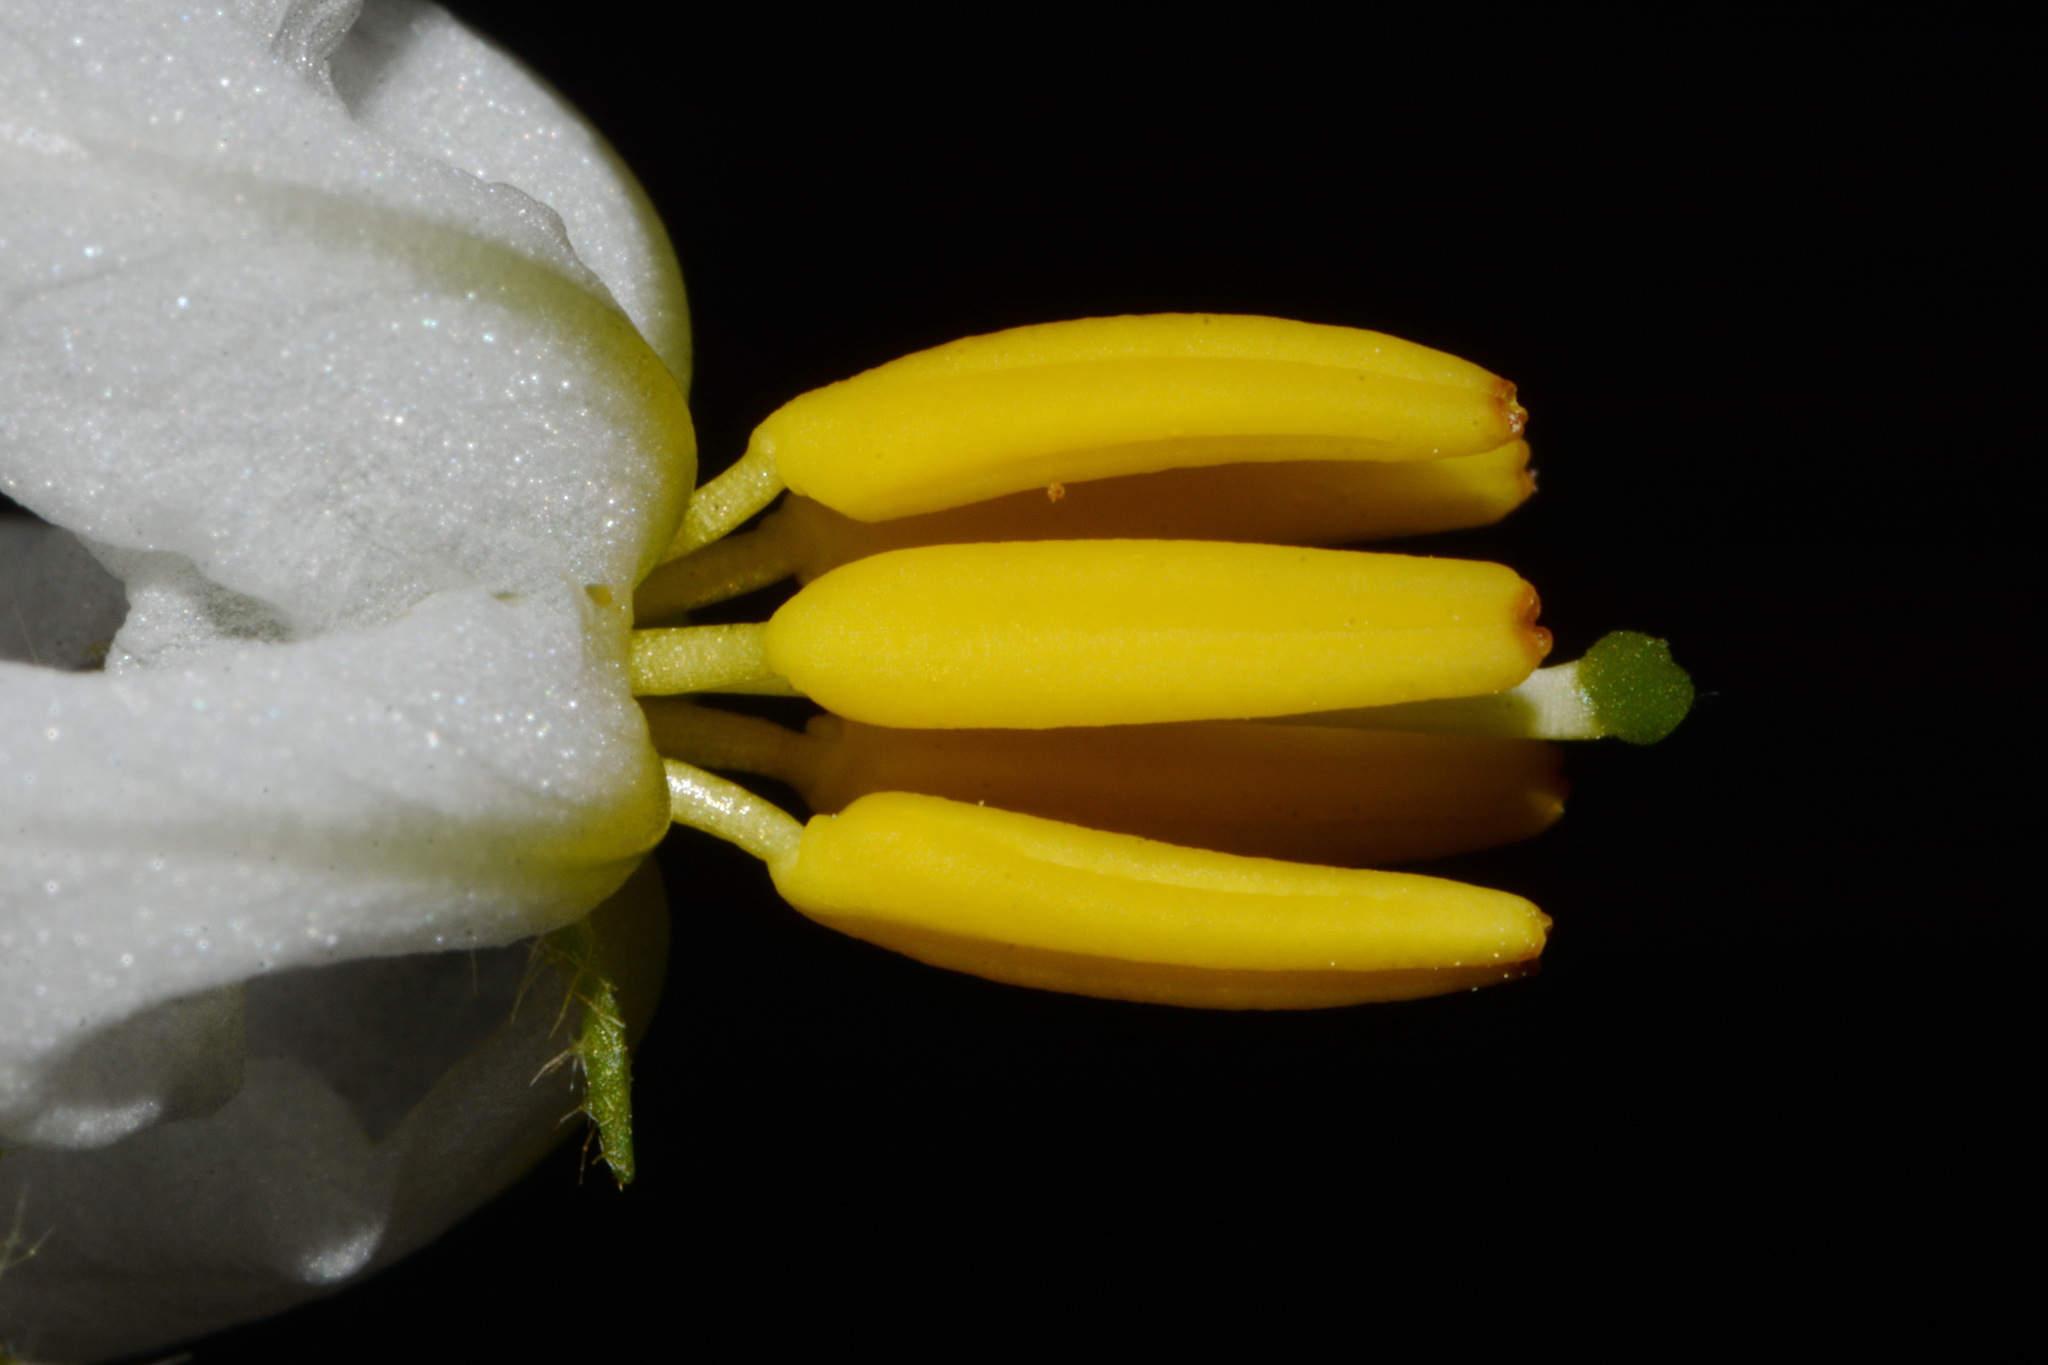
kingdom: Plantae
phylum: Tracheophyta
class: Magnoliopsida
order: Solanales
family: Solanaceae
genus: Solanum
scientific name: Solanum pumilum
